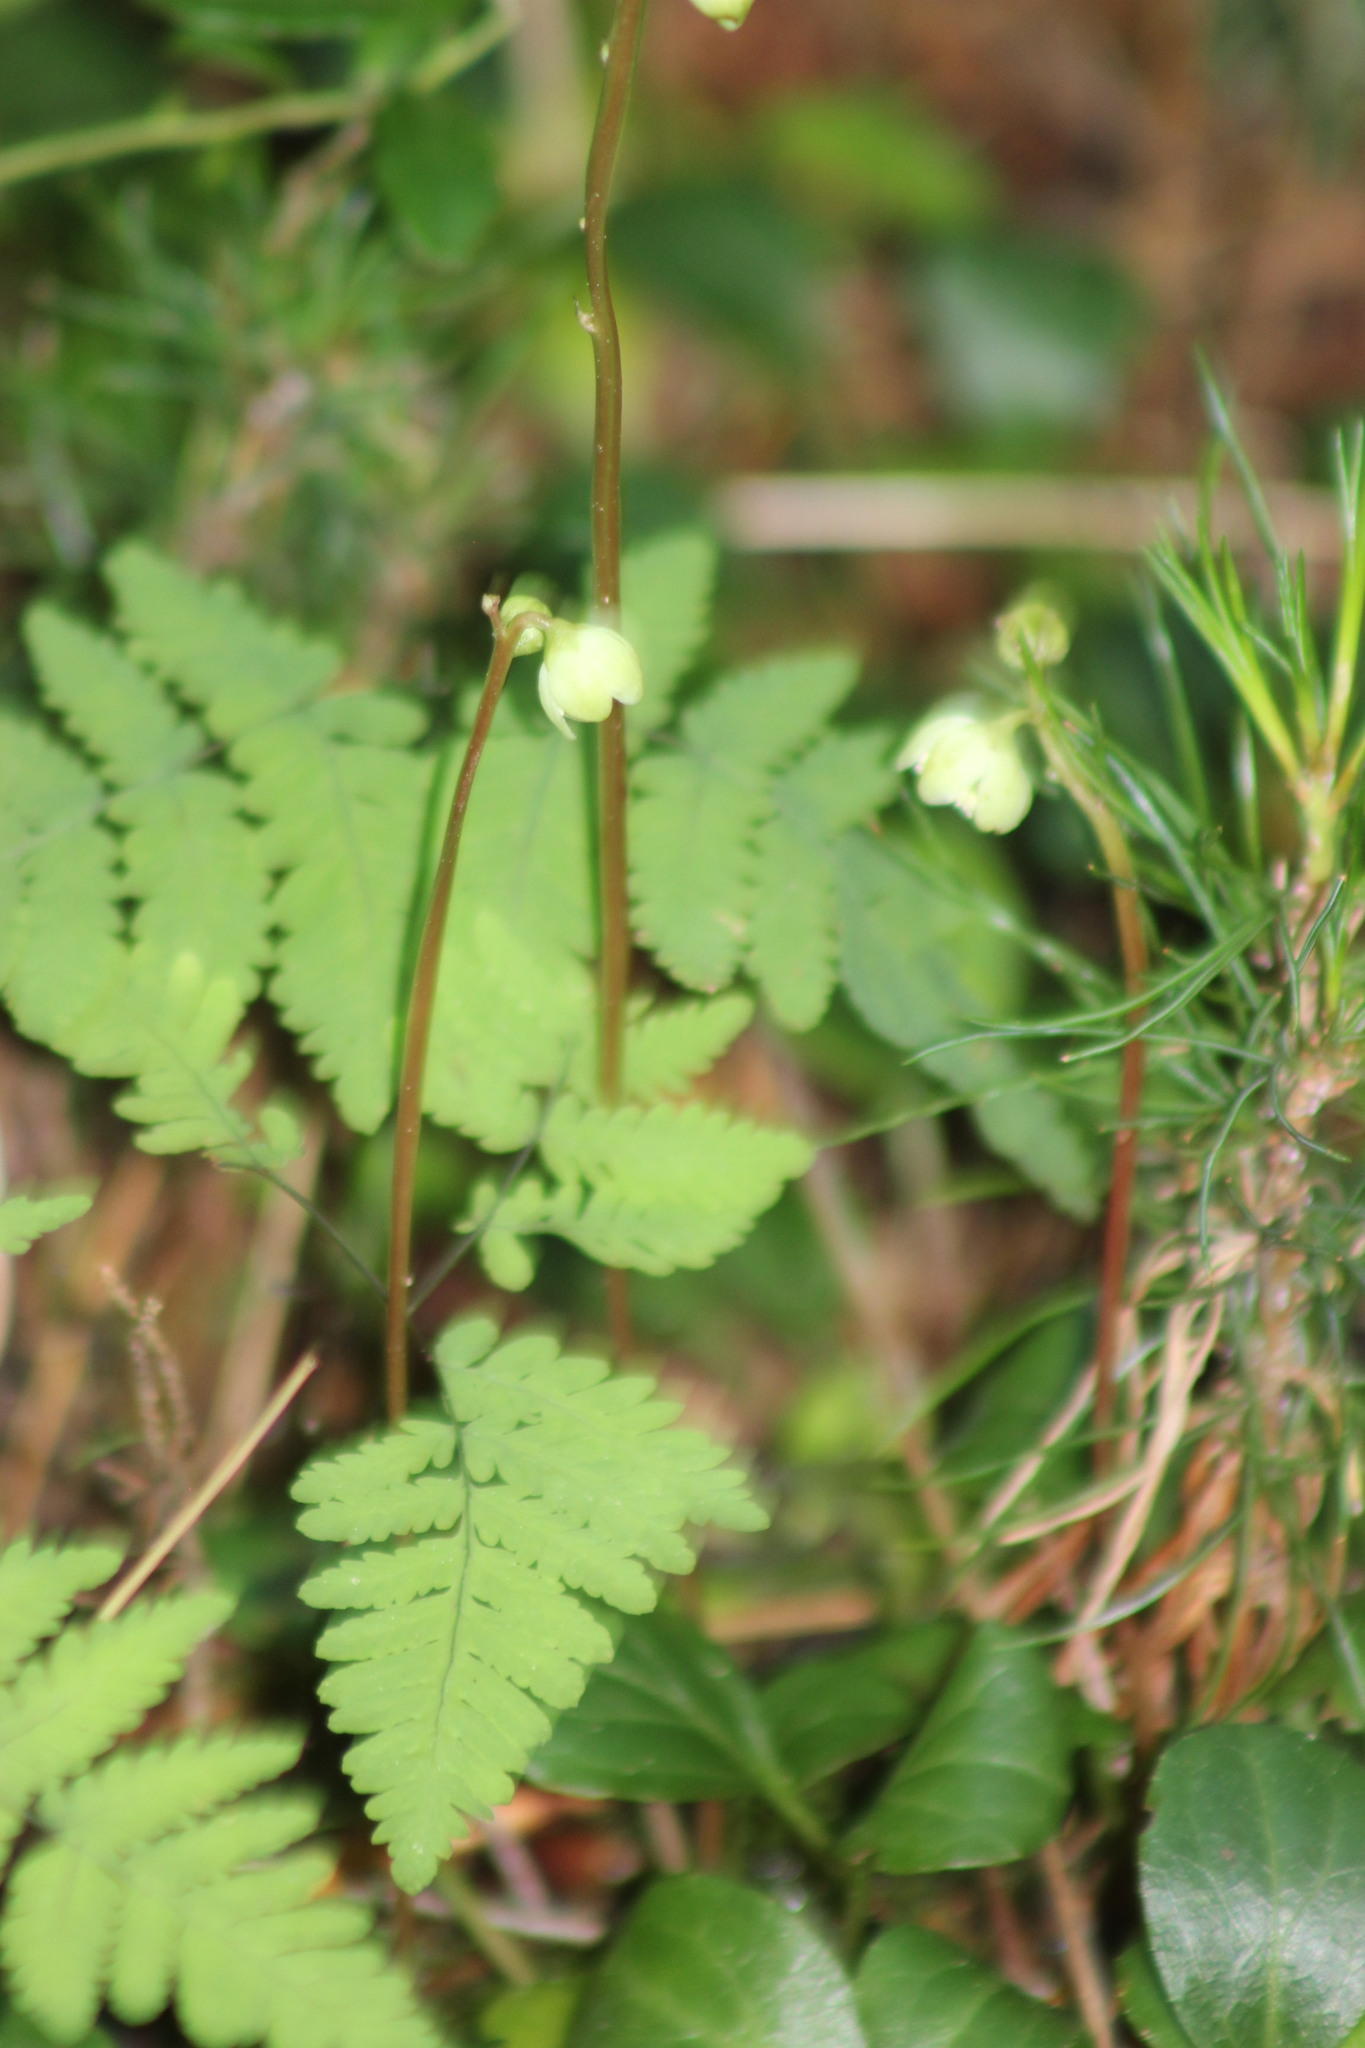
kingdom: Plantae
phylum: Tracheophyta
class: Magnoliopsida
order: Ericales
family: Ericaceae
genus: Pyrola
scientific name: Pyrola chlorantha
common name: Green wintergreen
